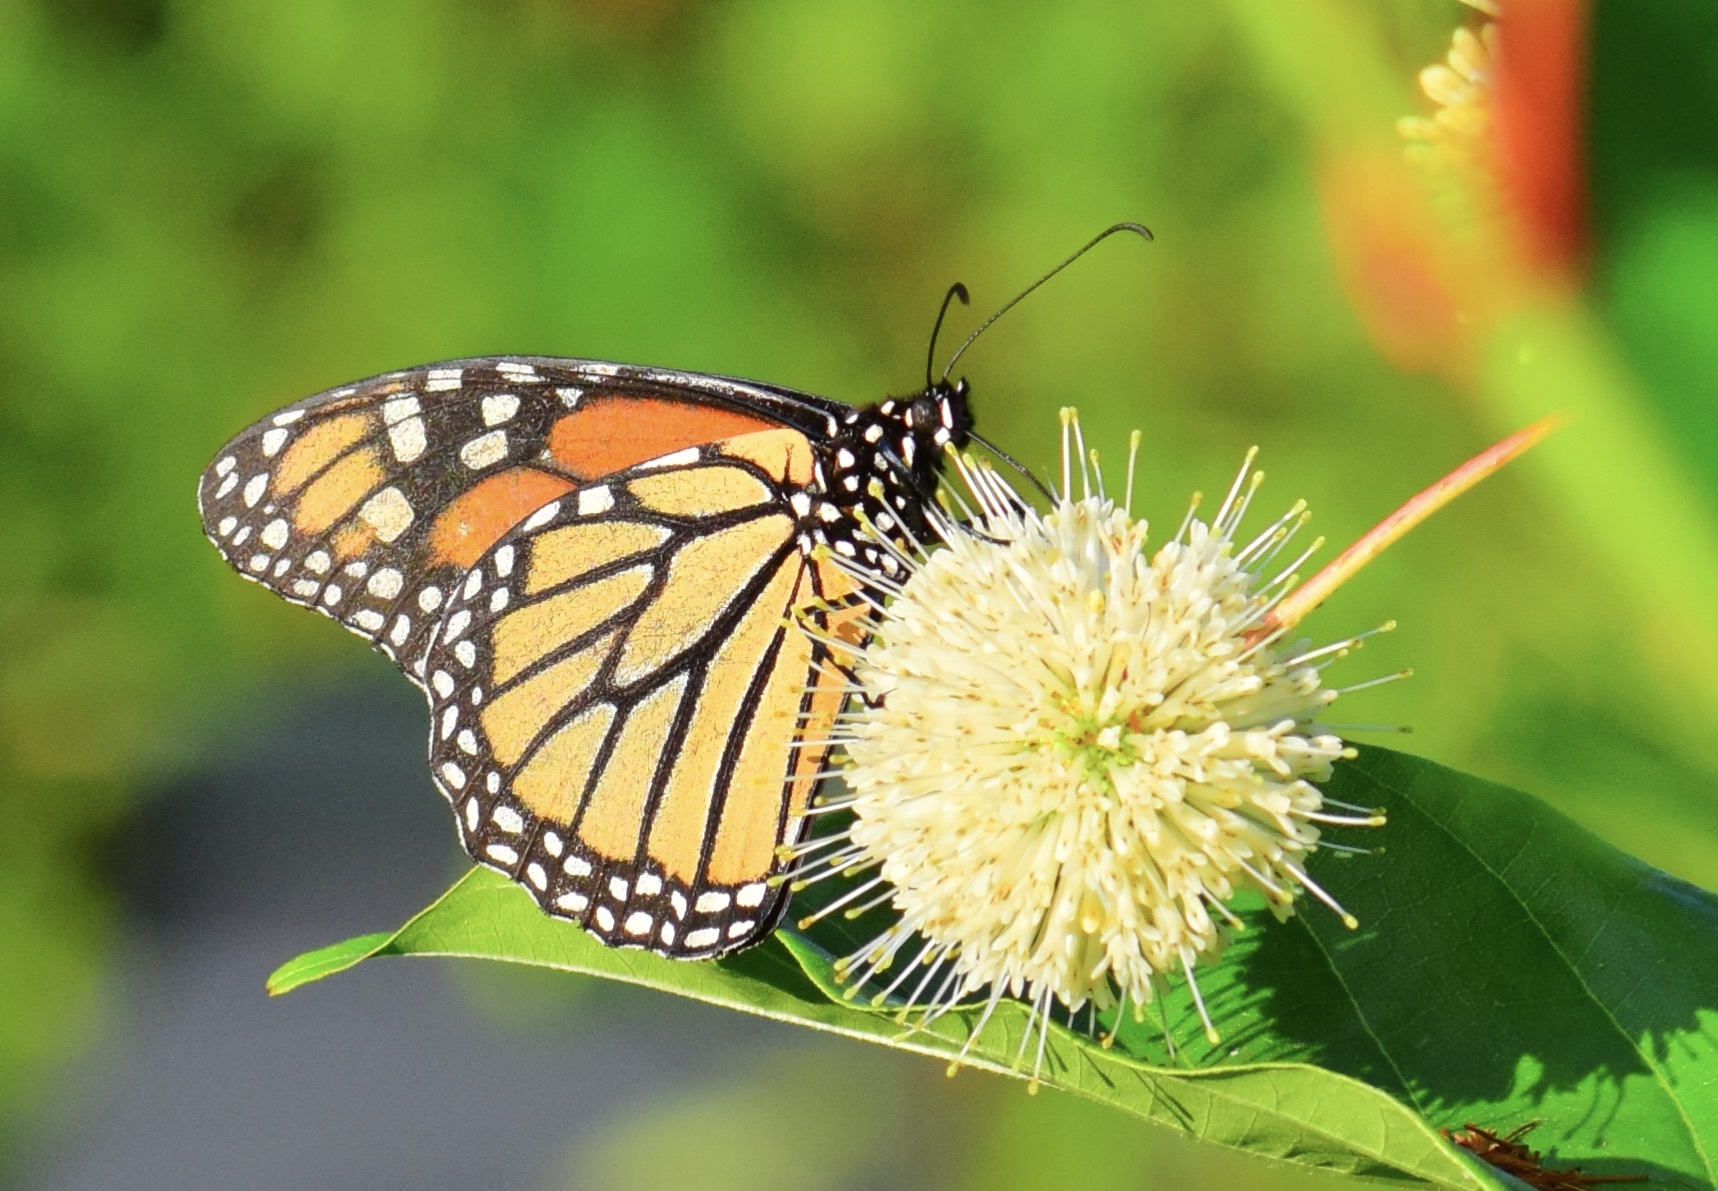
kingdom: Animalia
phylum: Arthropoda
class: Insecta
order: Lepidoptera
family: Nymphalidae
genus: Danaus
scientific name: Danaus plexippus
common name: Monarch
